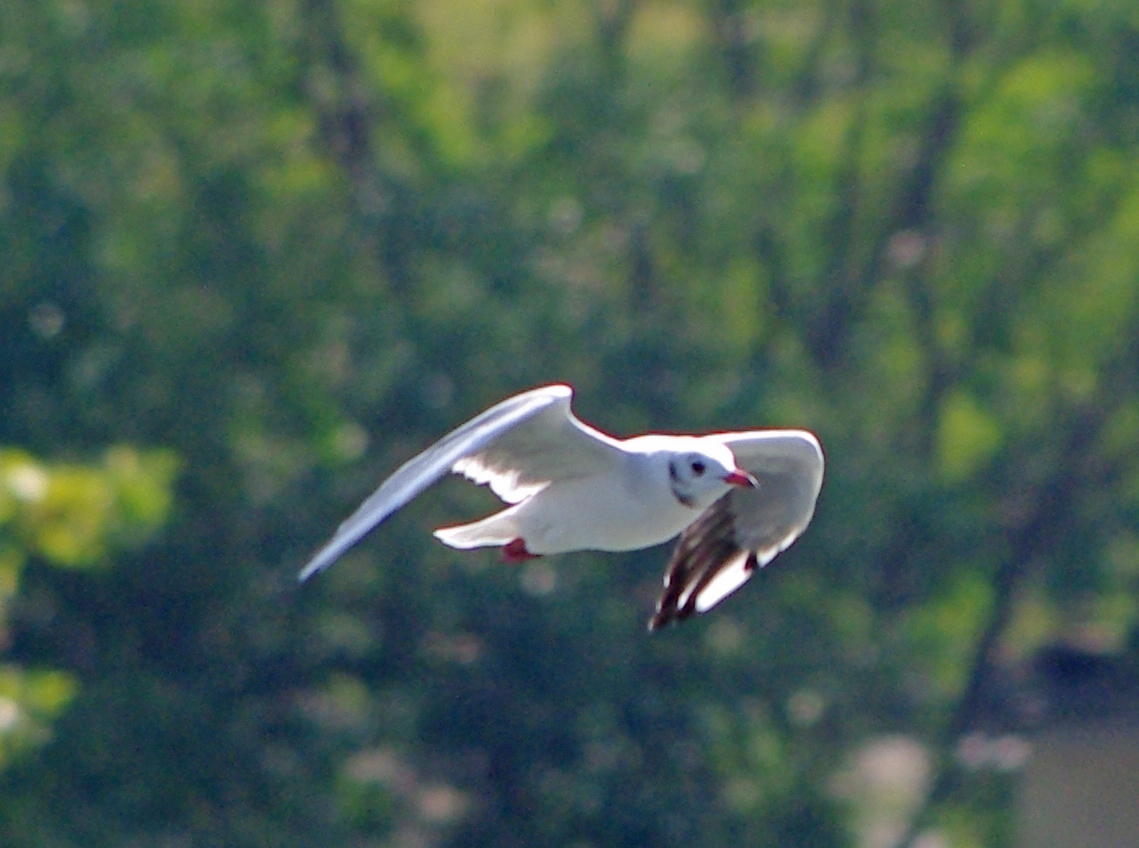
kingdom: Animalia
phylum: Chordata
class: Aves
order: Charadriiformes
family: Laridae
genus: Chroicocephalus
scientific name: Chroicocephalus ridibundus
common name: Black-headed gull
